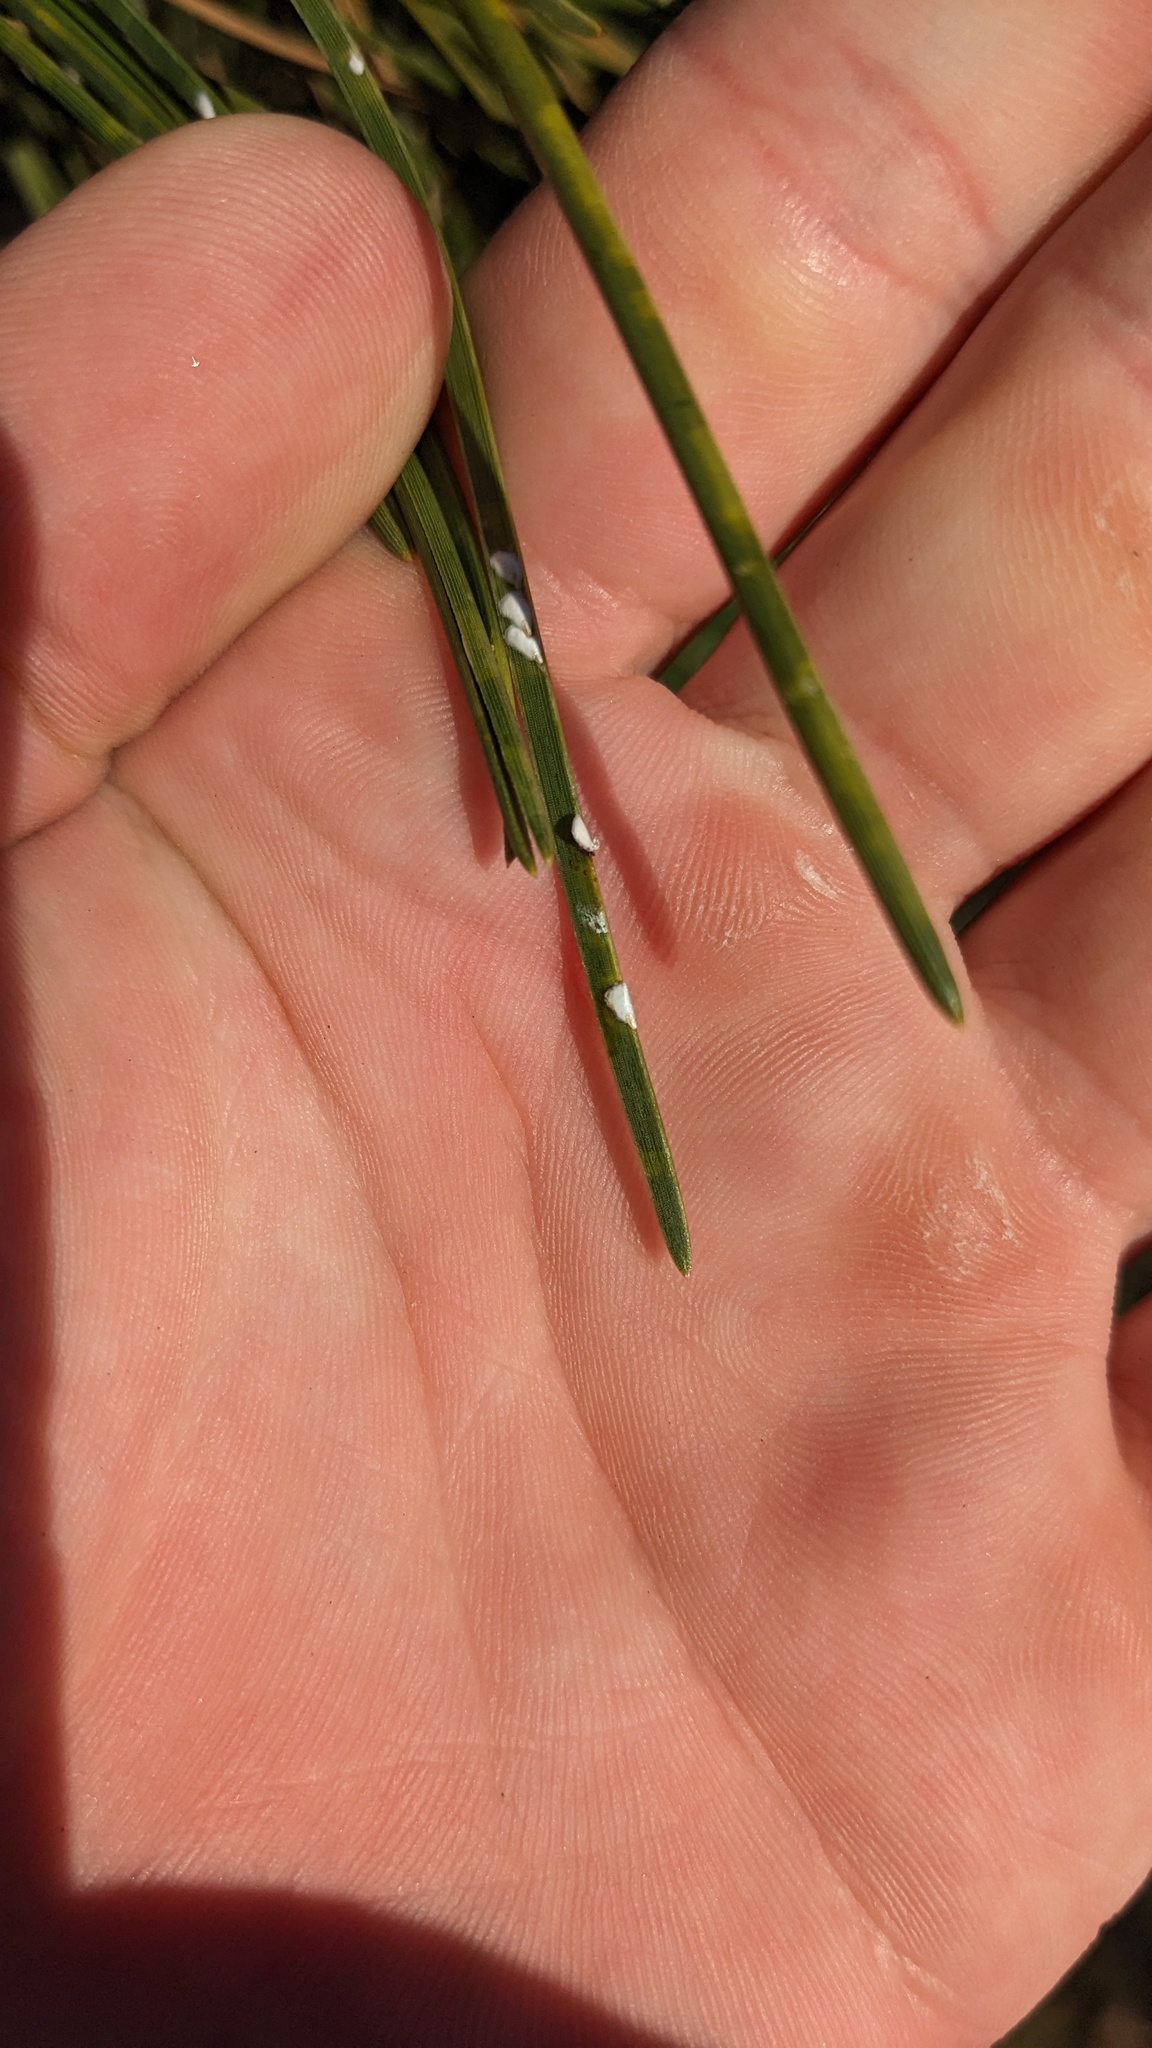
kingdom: Animalia
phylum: Arthropoda
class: Insecta
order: Hemiptera
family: Diaspididae
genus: Chionaspis
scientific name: Chionaspis pinifoliae
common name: Pine leaf scale
